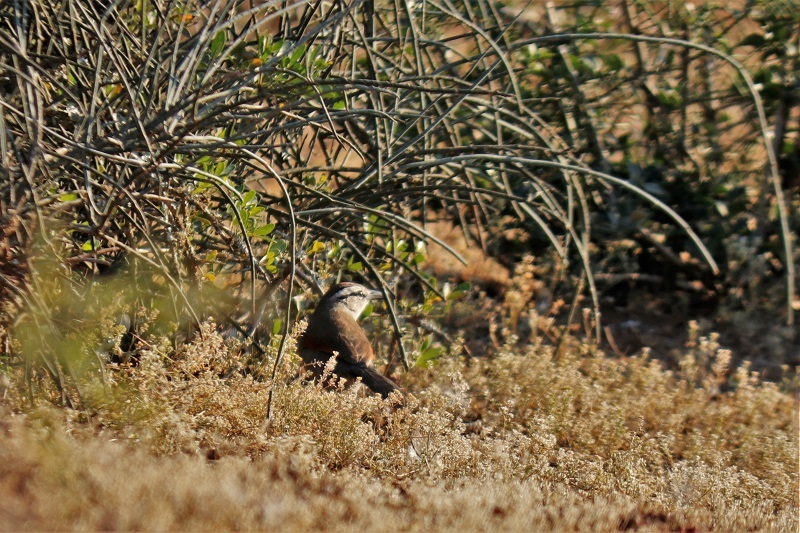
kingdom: Animalia
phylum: Chordata
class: Aves
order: Passeriformes
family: Malaconotidae
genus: Tchagra
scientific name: Tchagra tchagra
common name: Southern tchagra
